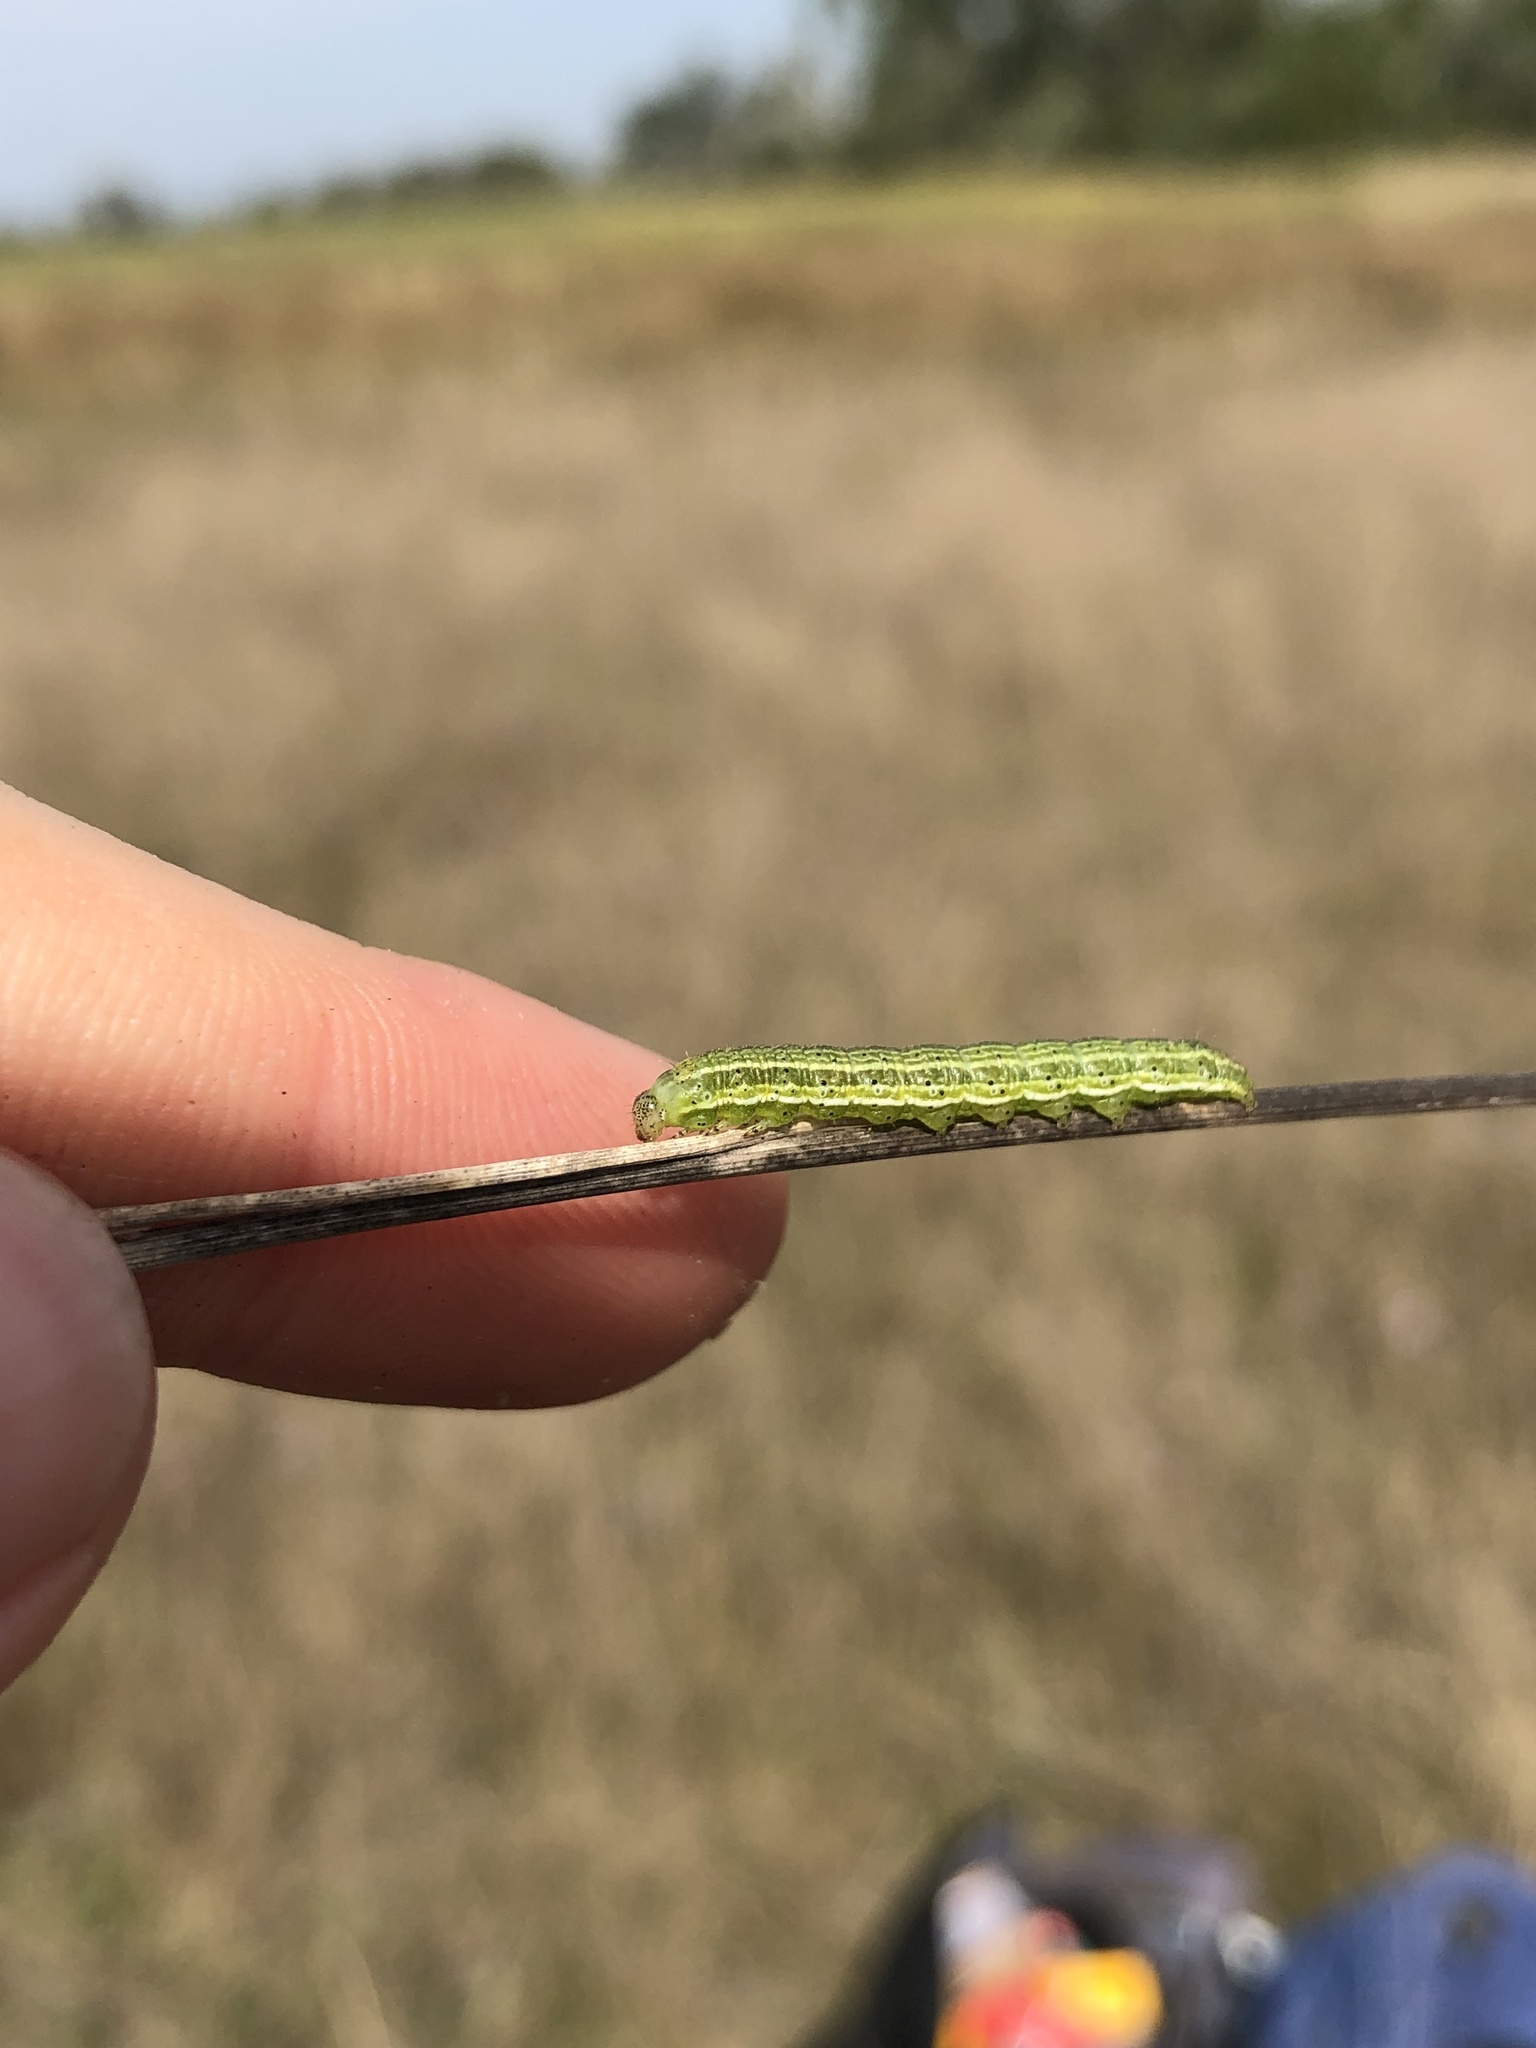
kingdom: Animalia
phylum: Arthropoda
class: Insecta
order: Lepidoptera
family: Noctuidae
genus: Pyrrhia
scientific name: Pyrrhia umbra
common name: Bordered sallow
